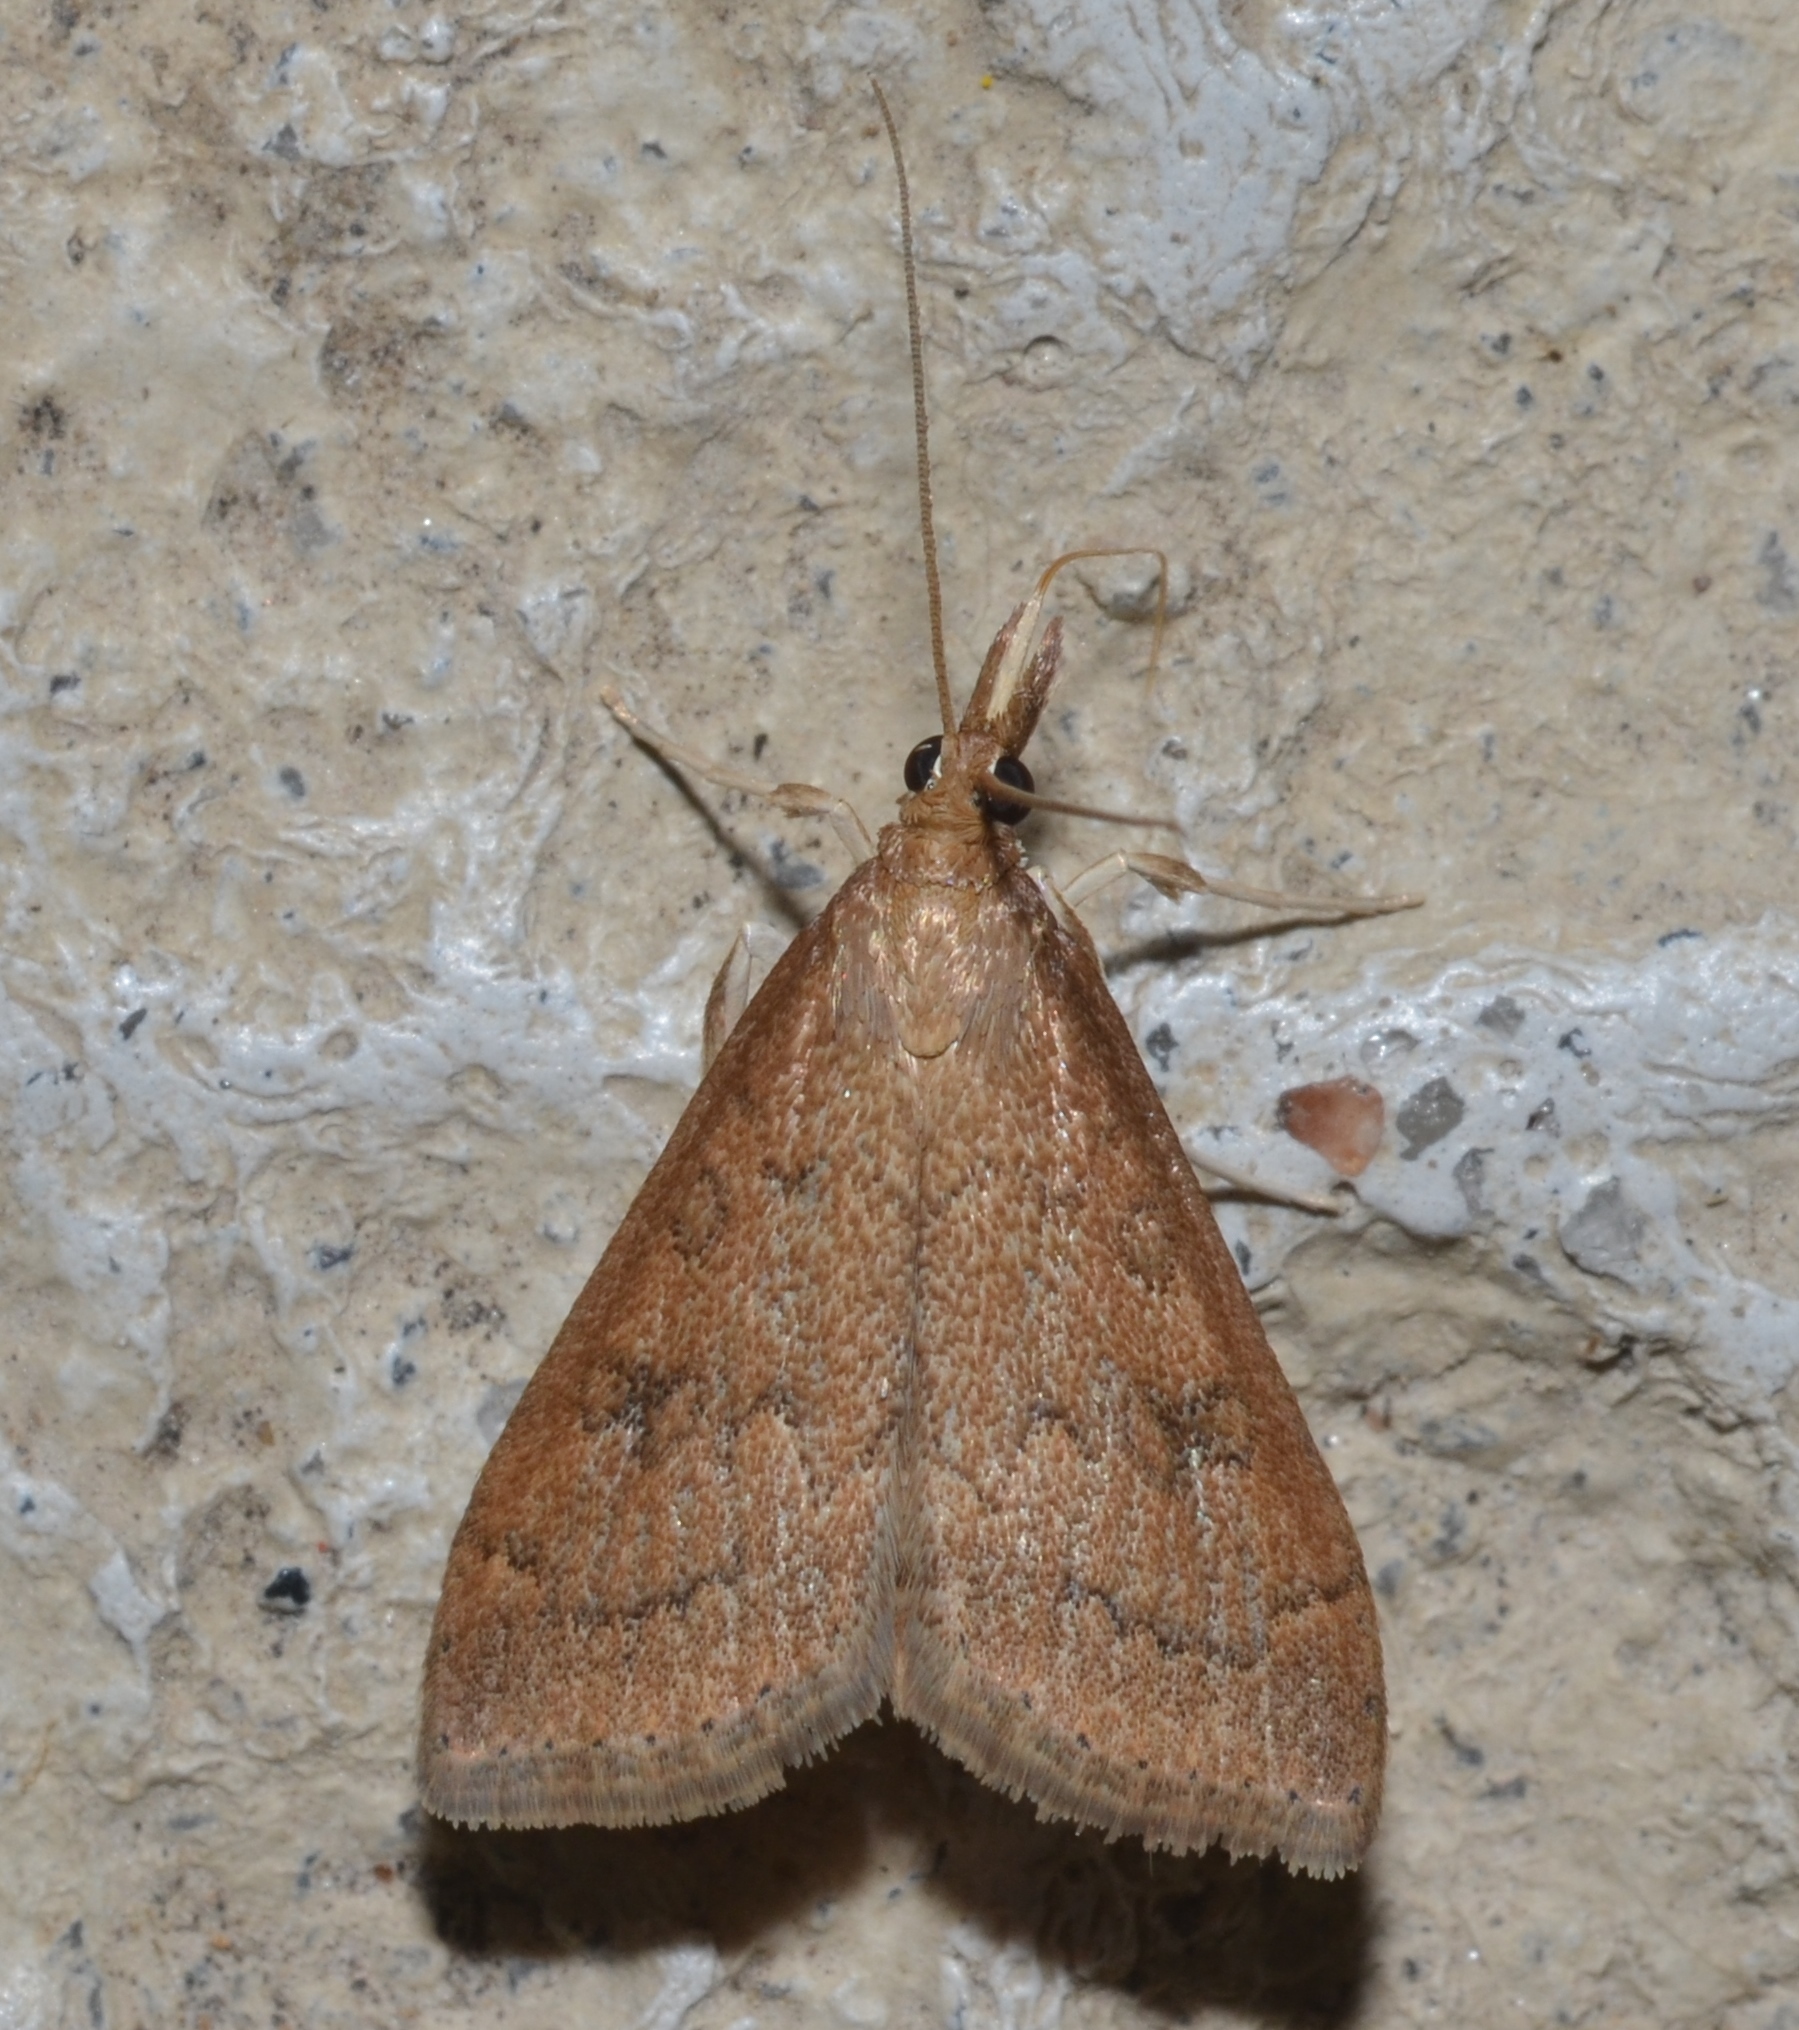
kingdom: Animalia
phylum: Arthropoda
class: Insecta
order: Lepidoptera
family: Crambidae
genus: Udea
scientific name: Udea rubigalis
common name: Celery leaftier moth
